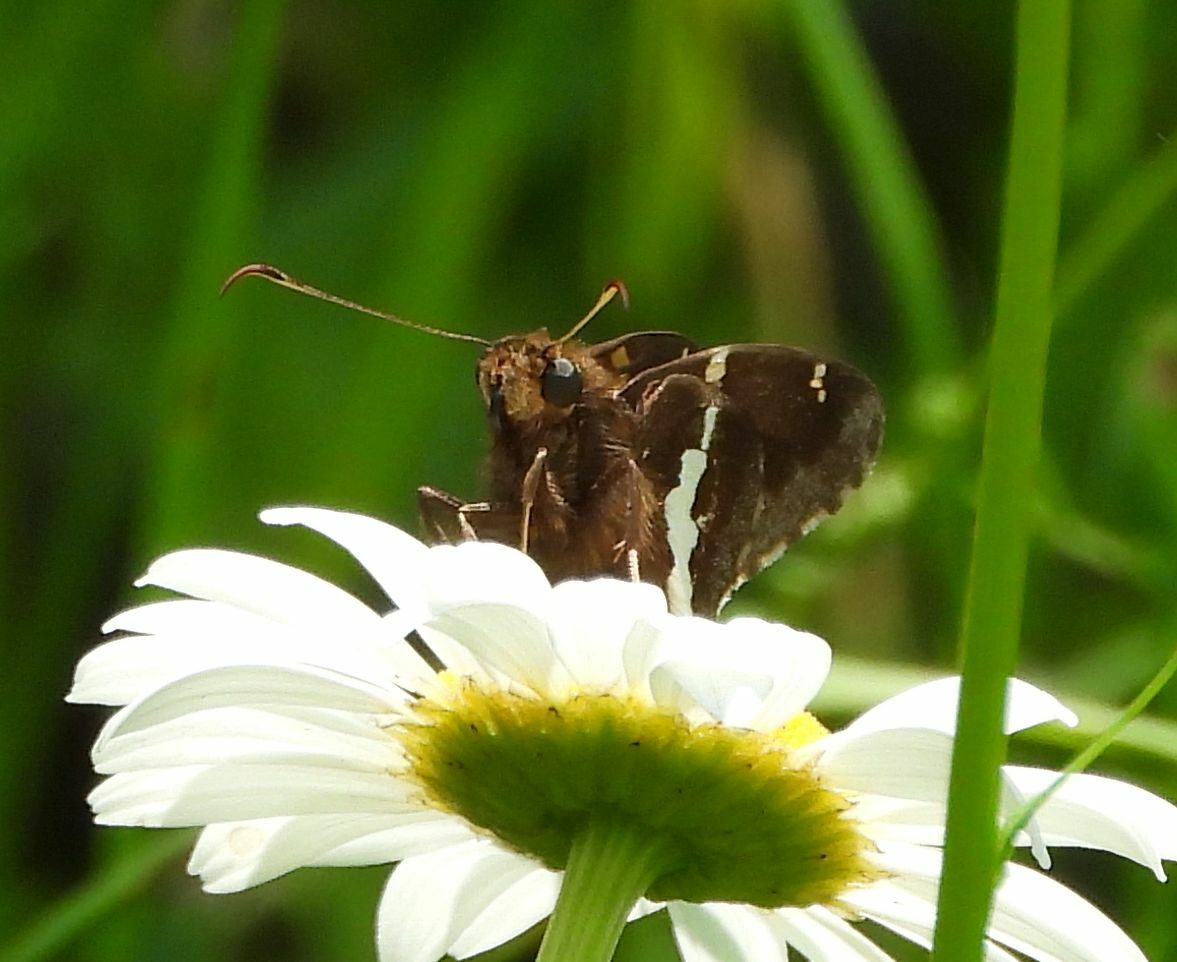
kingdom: Animalia
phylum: Arthropoda
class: Insecta
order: Lepidoptera
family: Hesperiidae
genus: Epargyreus
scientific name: Epargyreus clarus
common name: Silver-spotted skipper
